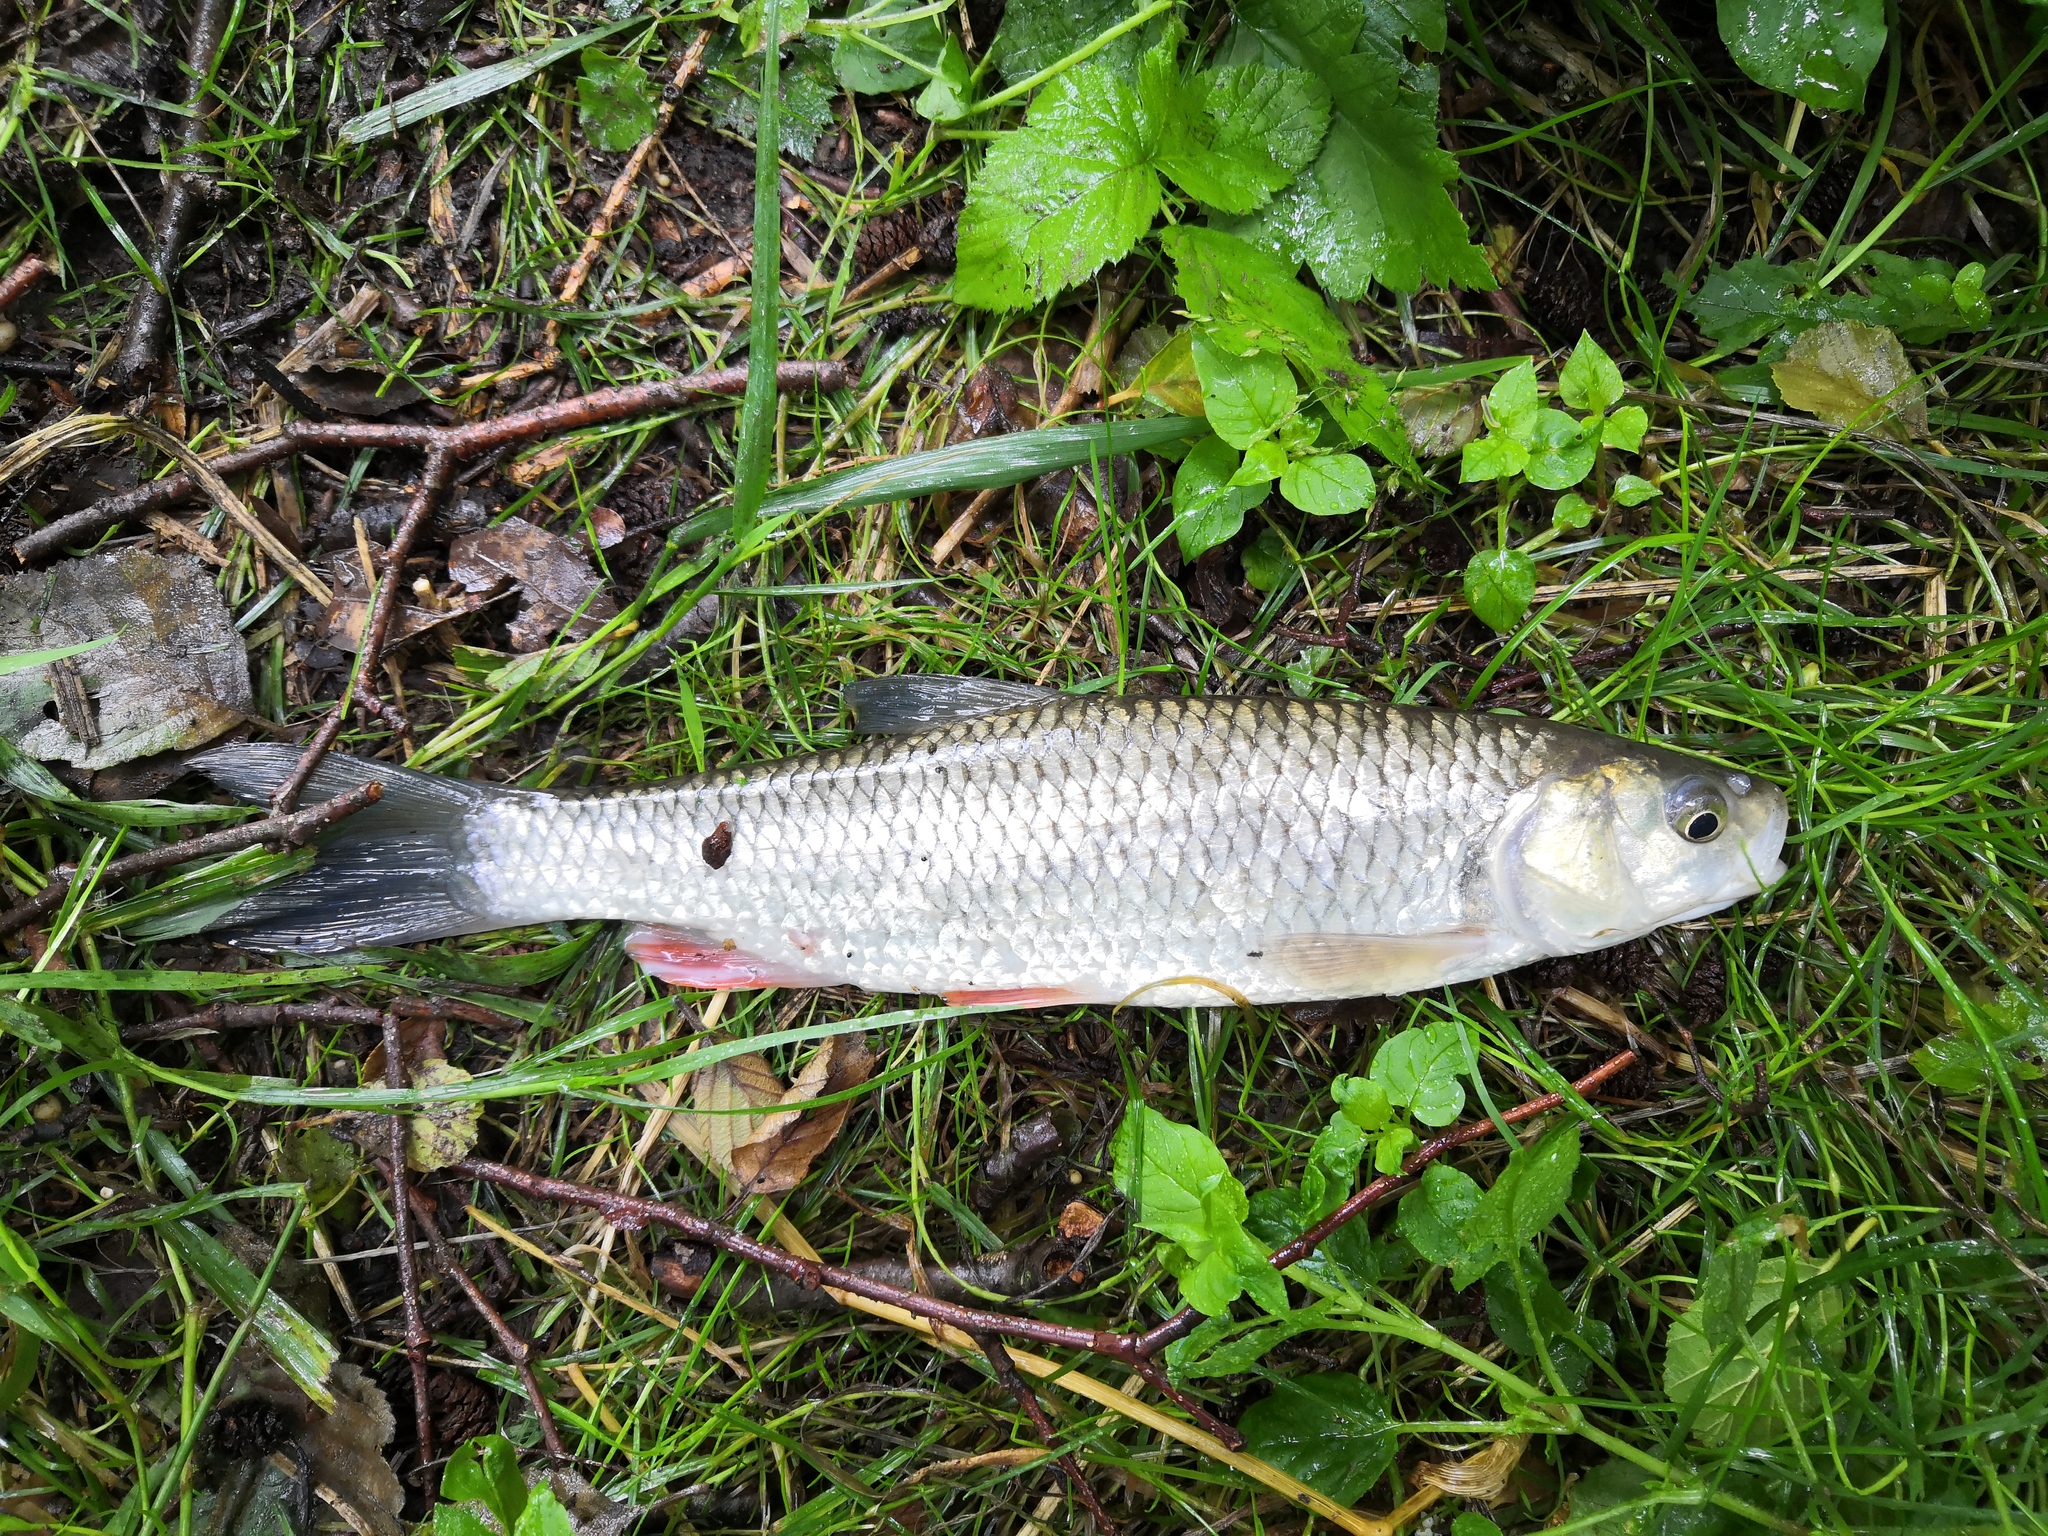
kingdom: Animalia
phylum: Chordata
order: Cypriniformes
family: Cyprinidae
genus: Squalius
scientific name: Squalius cephalus
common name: Chub
